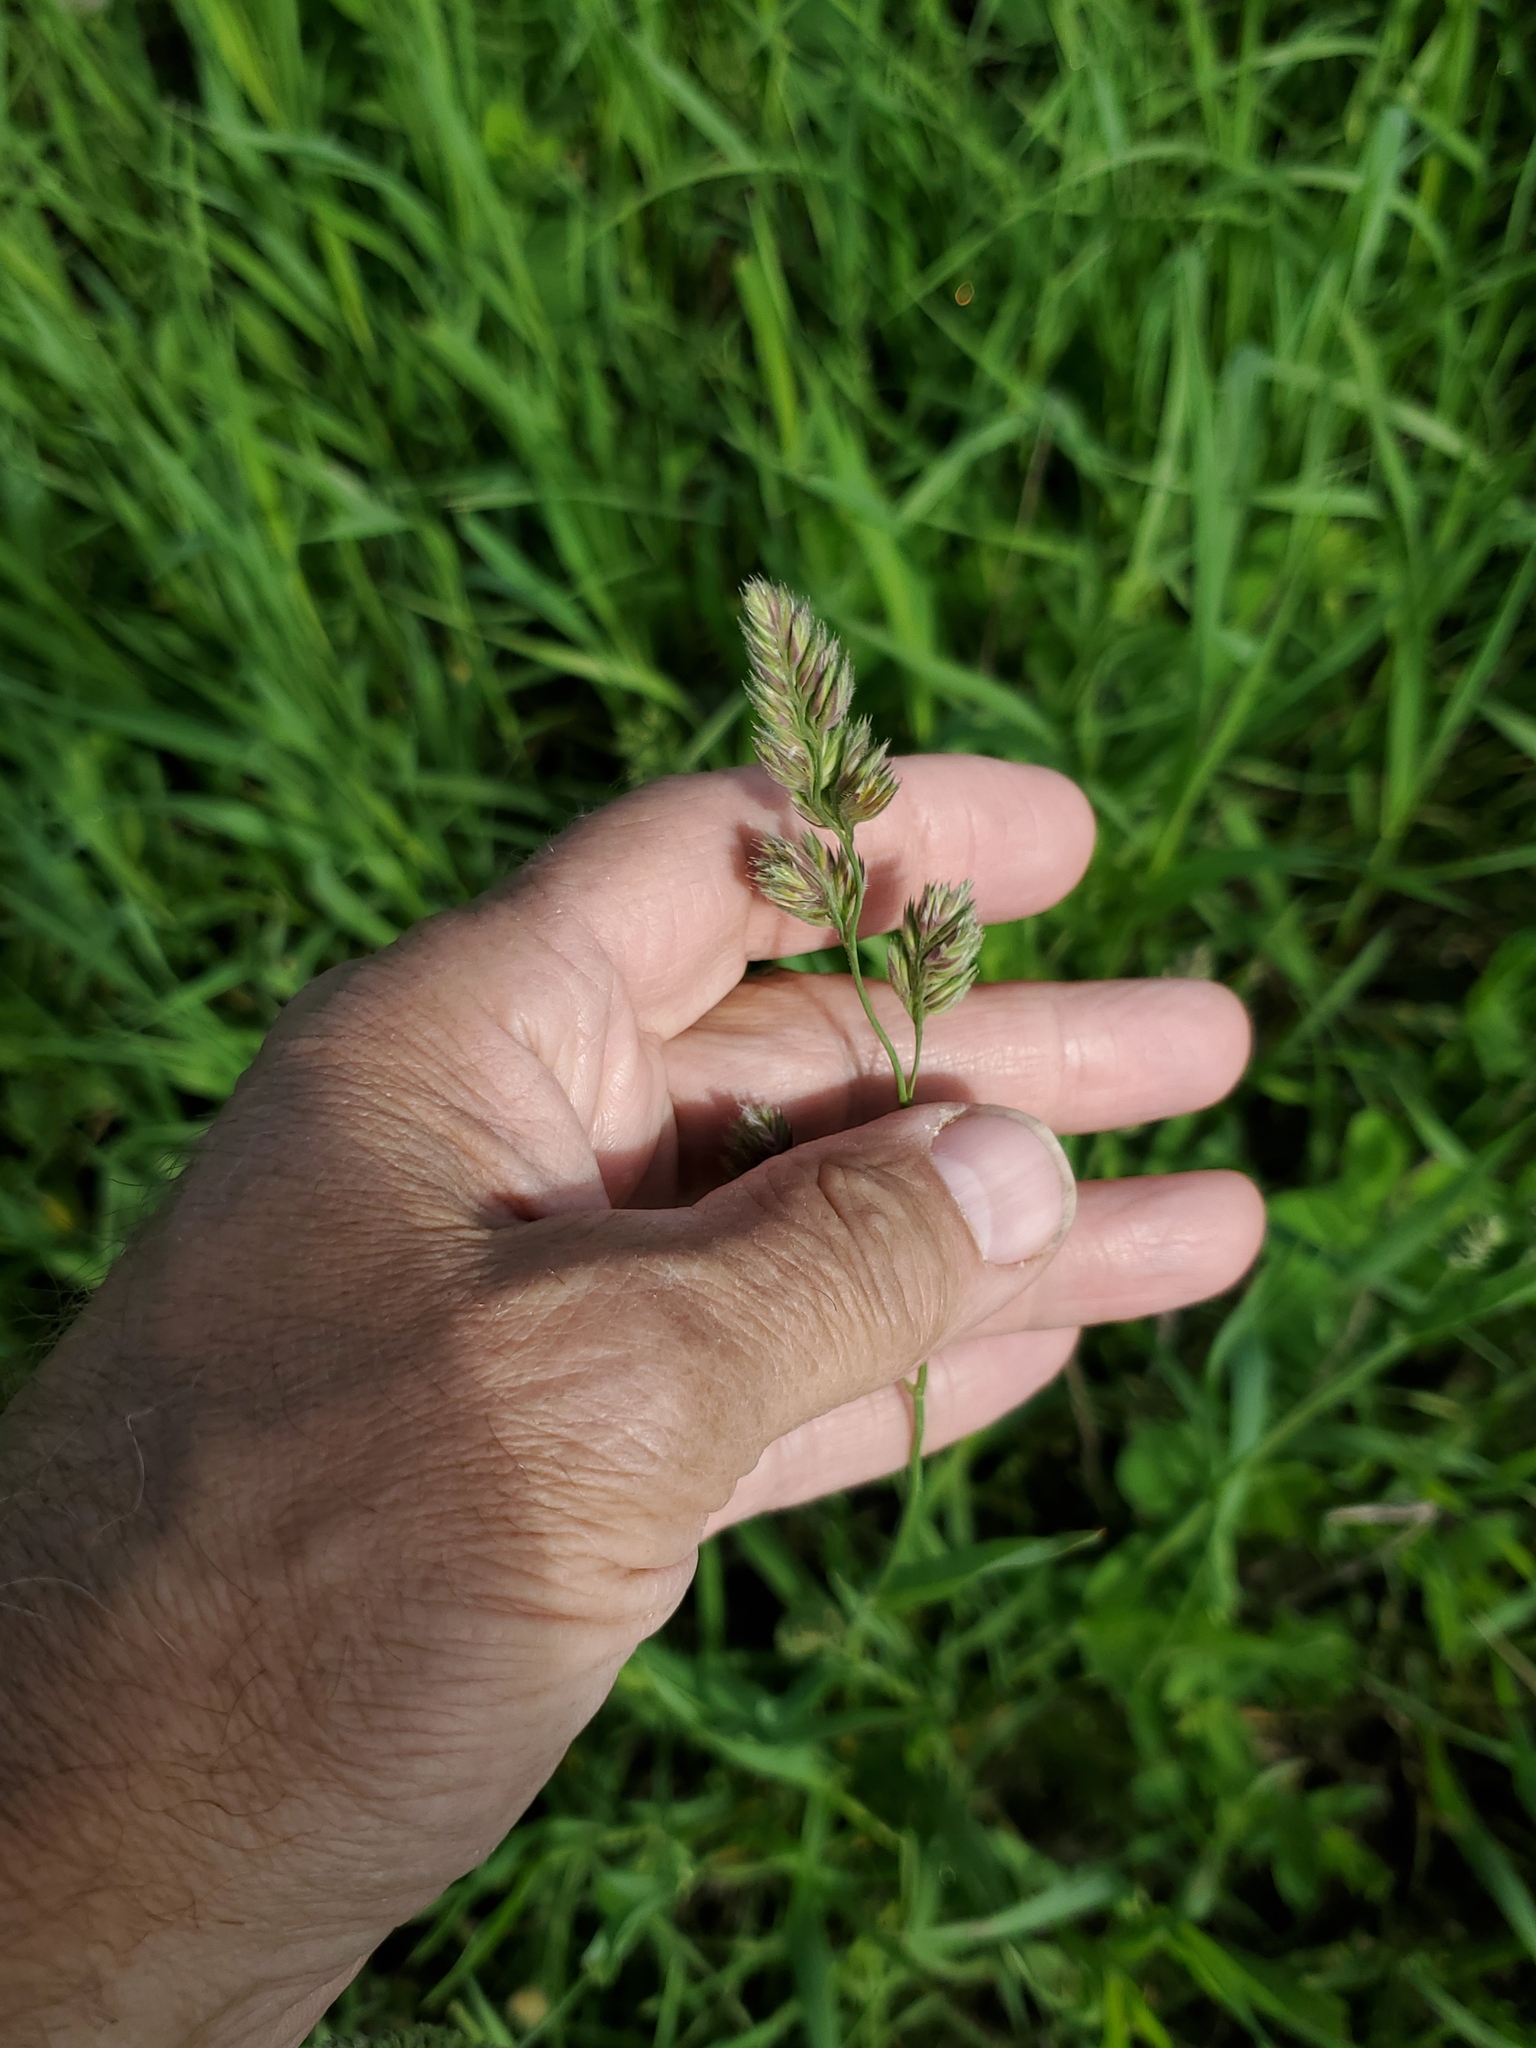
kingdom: Plantae
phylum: Tracheophyta
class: Liliopsida
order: Poales
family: Poaceae
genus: Dactylis
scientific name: Dactylis glomerata
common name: Orchardgrass
